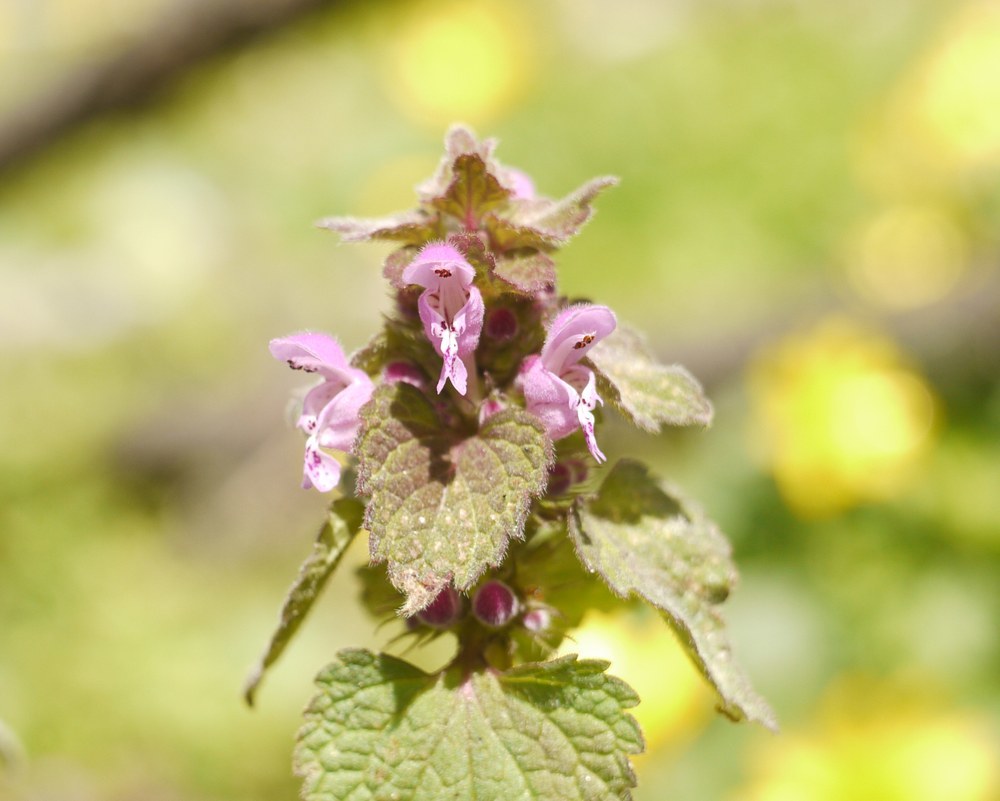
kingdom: Plantae
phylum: Tracheophyta
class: Magnoliopsida
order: Lamiales
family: Lamiaceae
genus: Lamium
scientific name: Lamium maculatum
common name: Spotted dead-nettle
